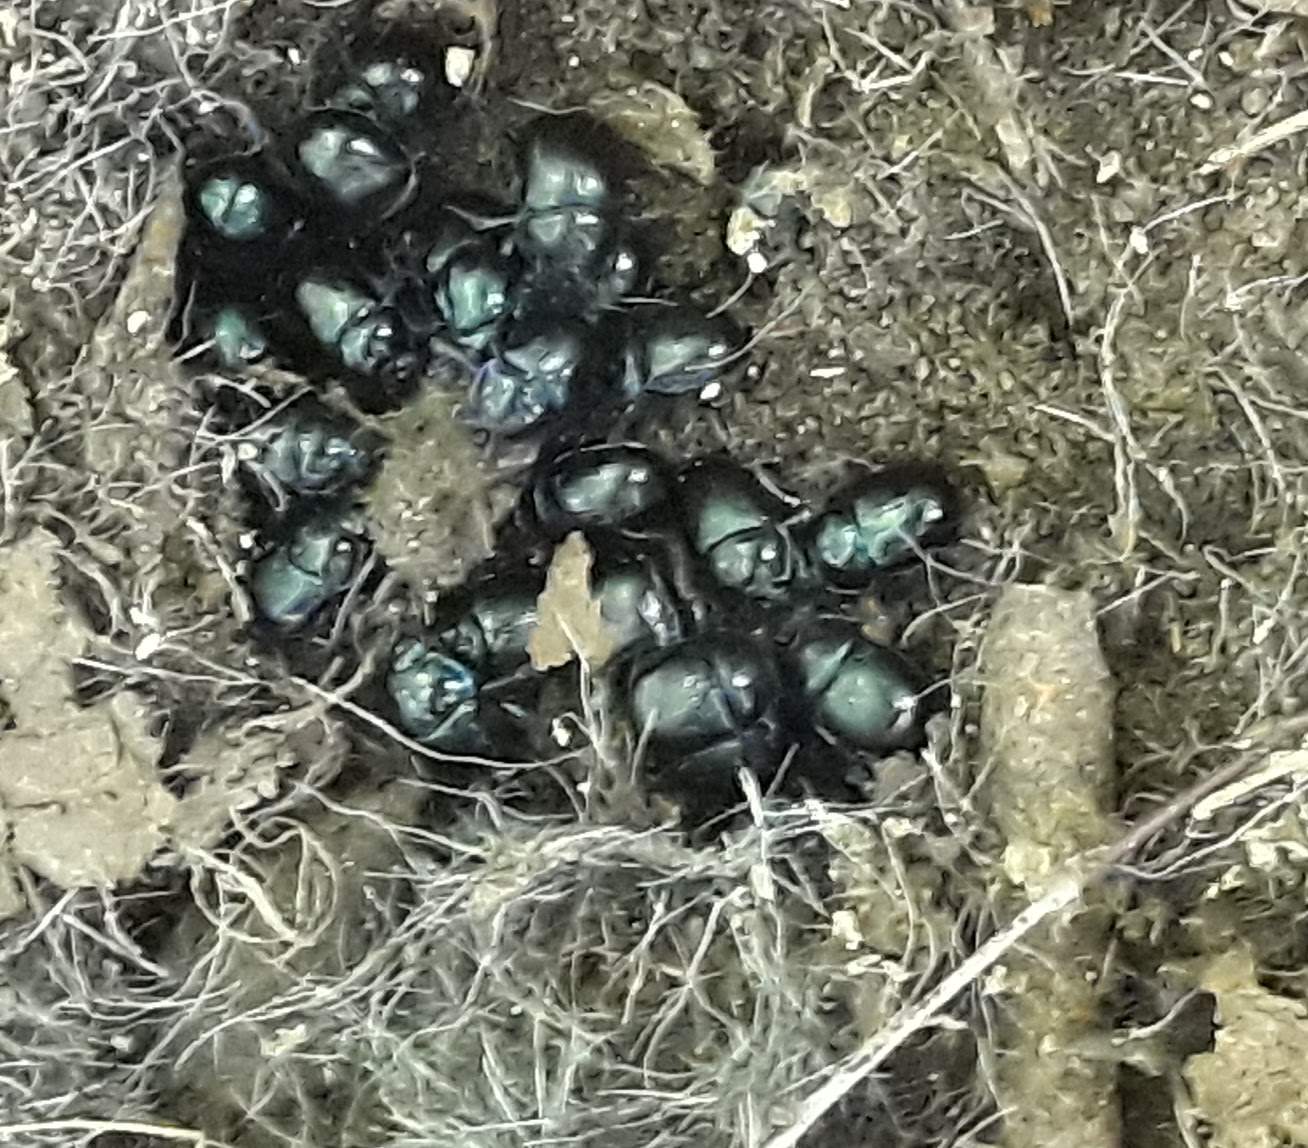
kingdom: Animalia
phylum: Arthropoda
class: Insecta
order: Coleoptera
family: Geotrupidae
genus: Anoplotrupes
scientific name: Anoplotrupes stercorosus
